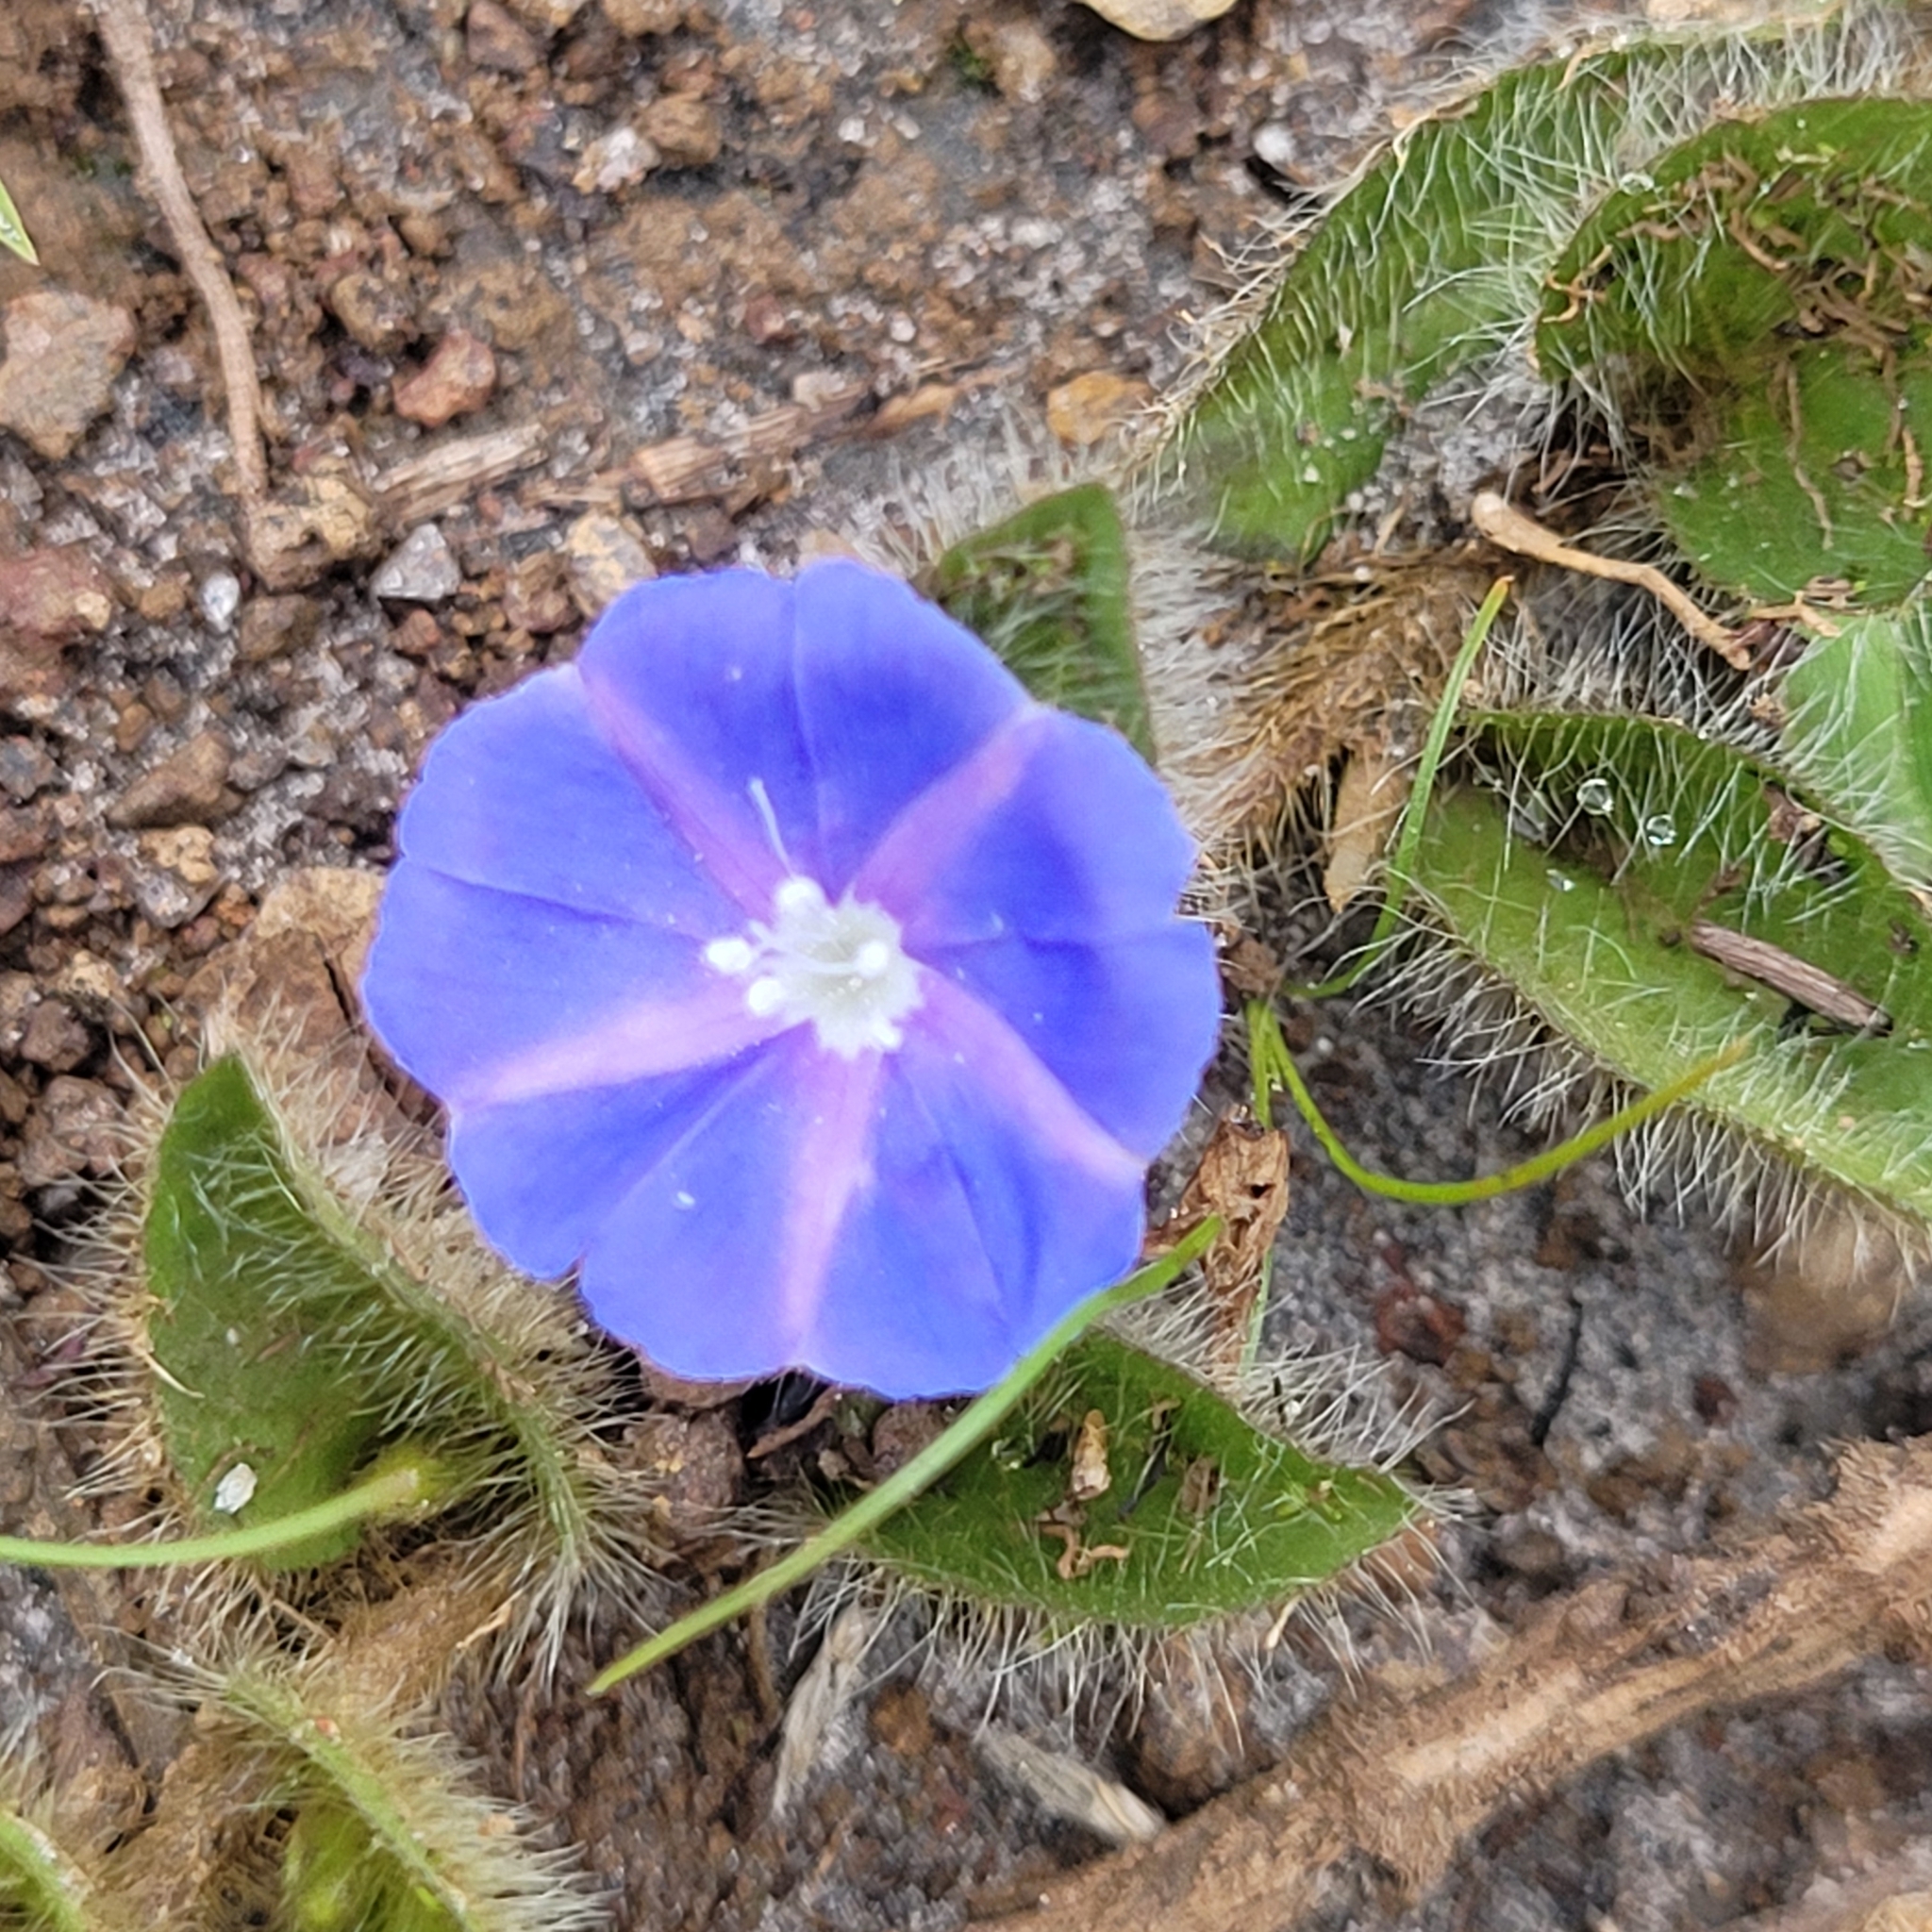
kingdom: Plantae
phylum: Tracheophyta
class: Magnoliopsida
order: Solanales
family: Convolvulaceae
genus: Evolvulus
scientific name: Evolvulus aurigenius
